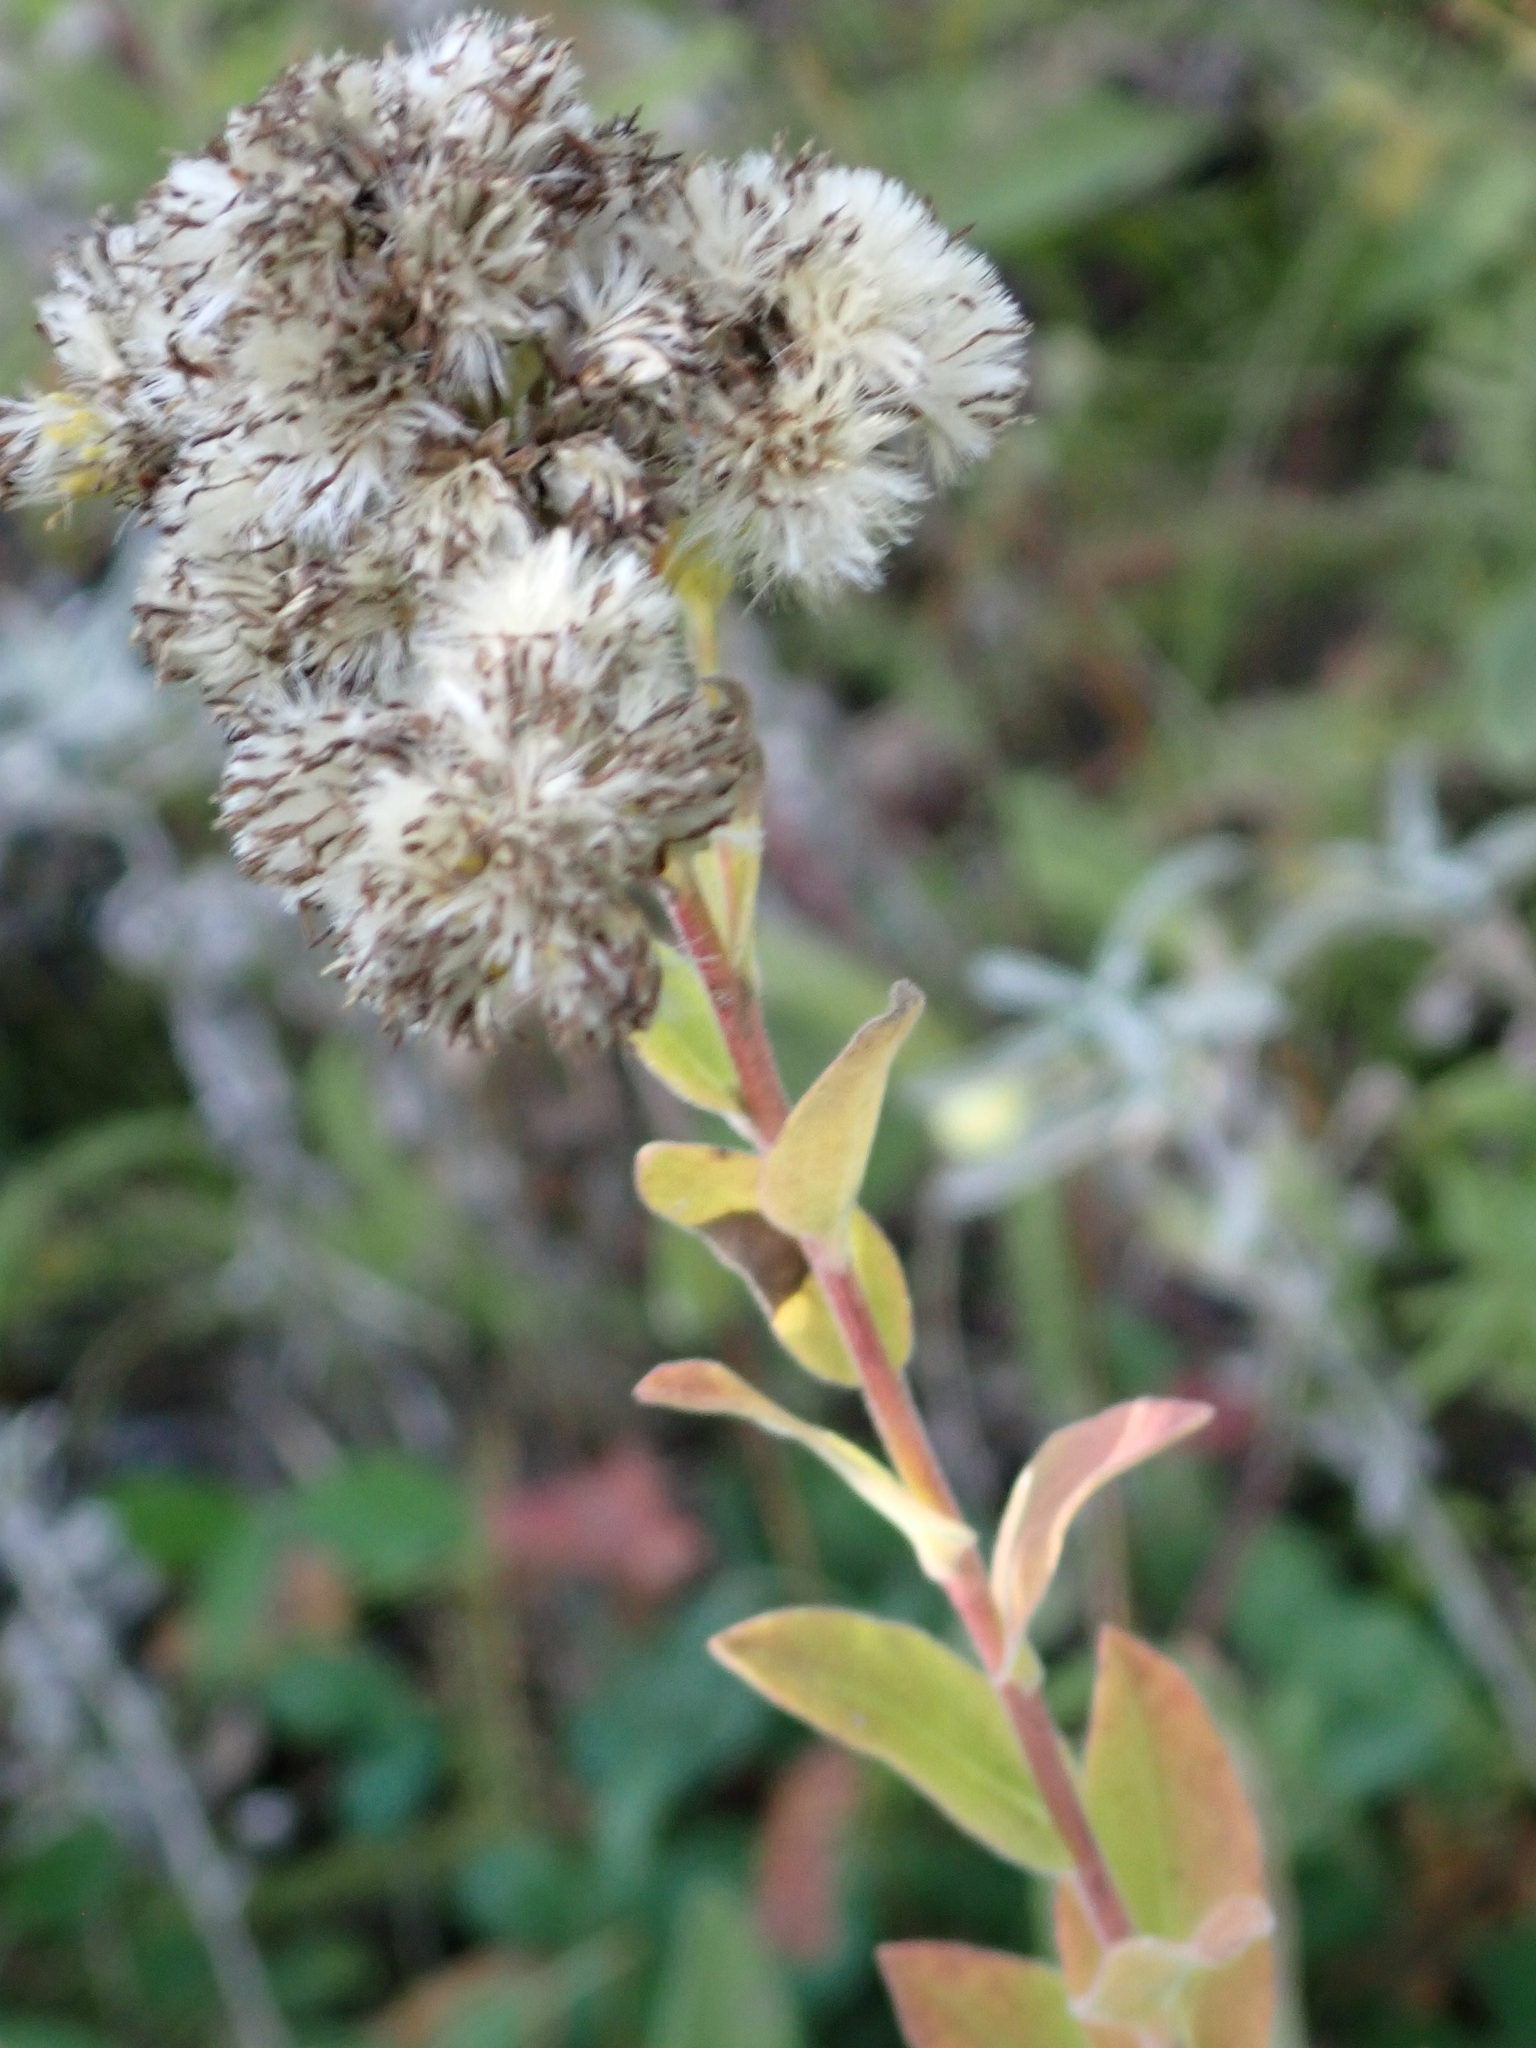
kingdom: Plantae
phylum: Tracheophyta
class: Magnoliopsida
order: Asterales
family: Asteraceae
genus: Solidago
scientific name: Solidago rigida
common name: Rigid goldenrod
